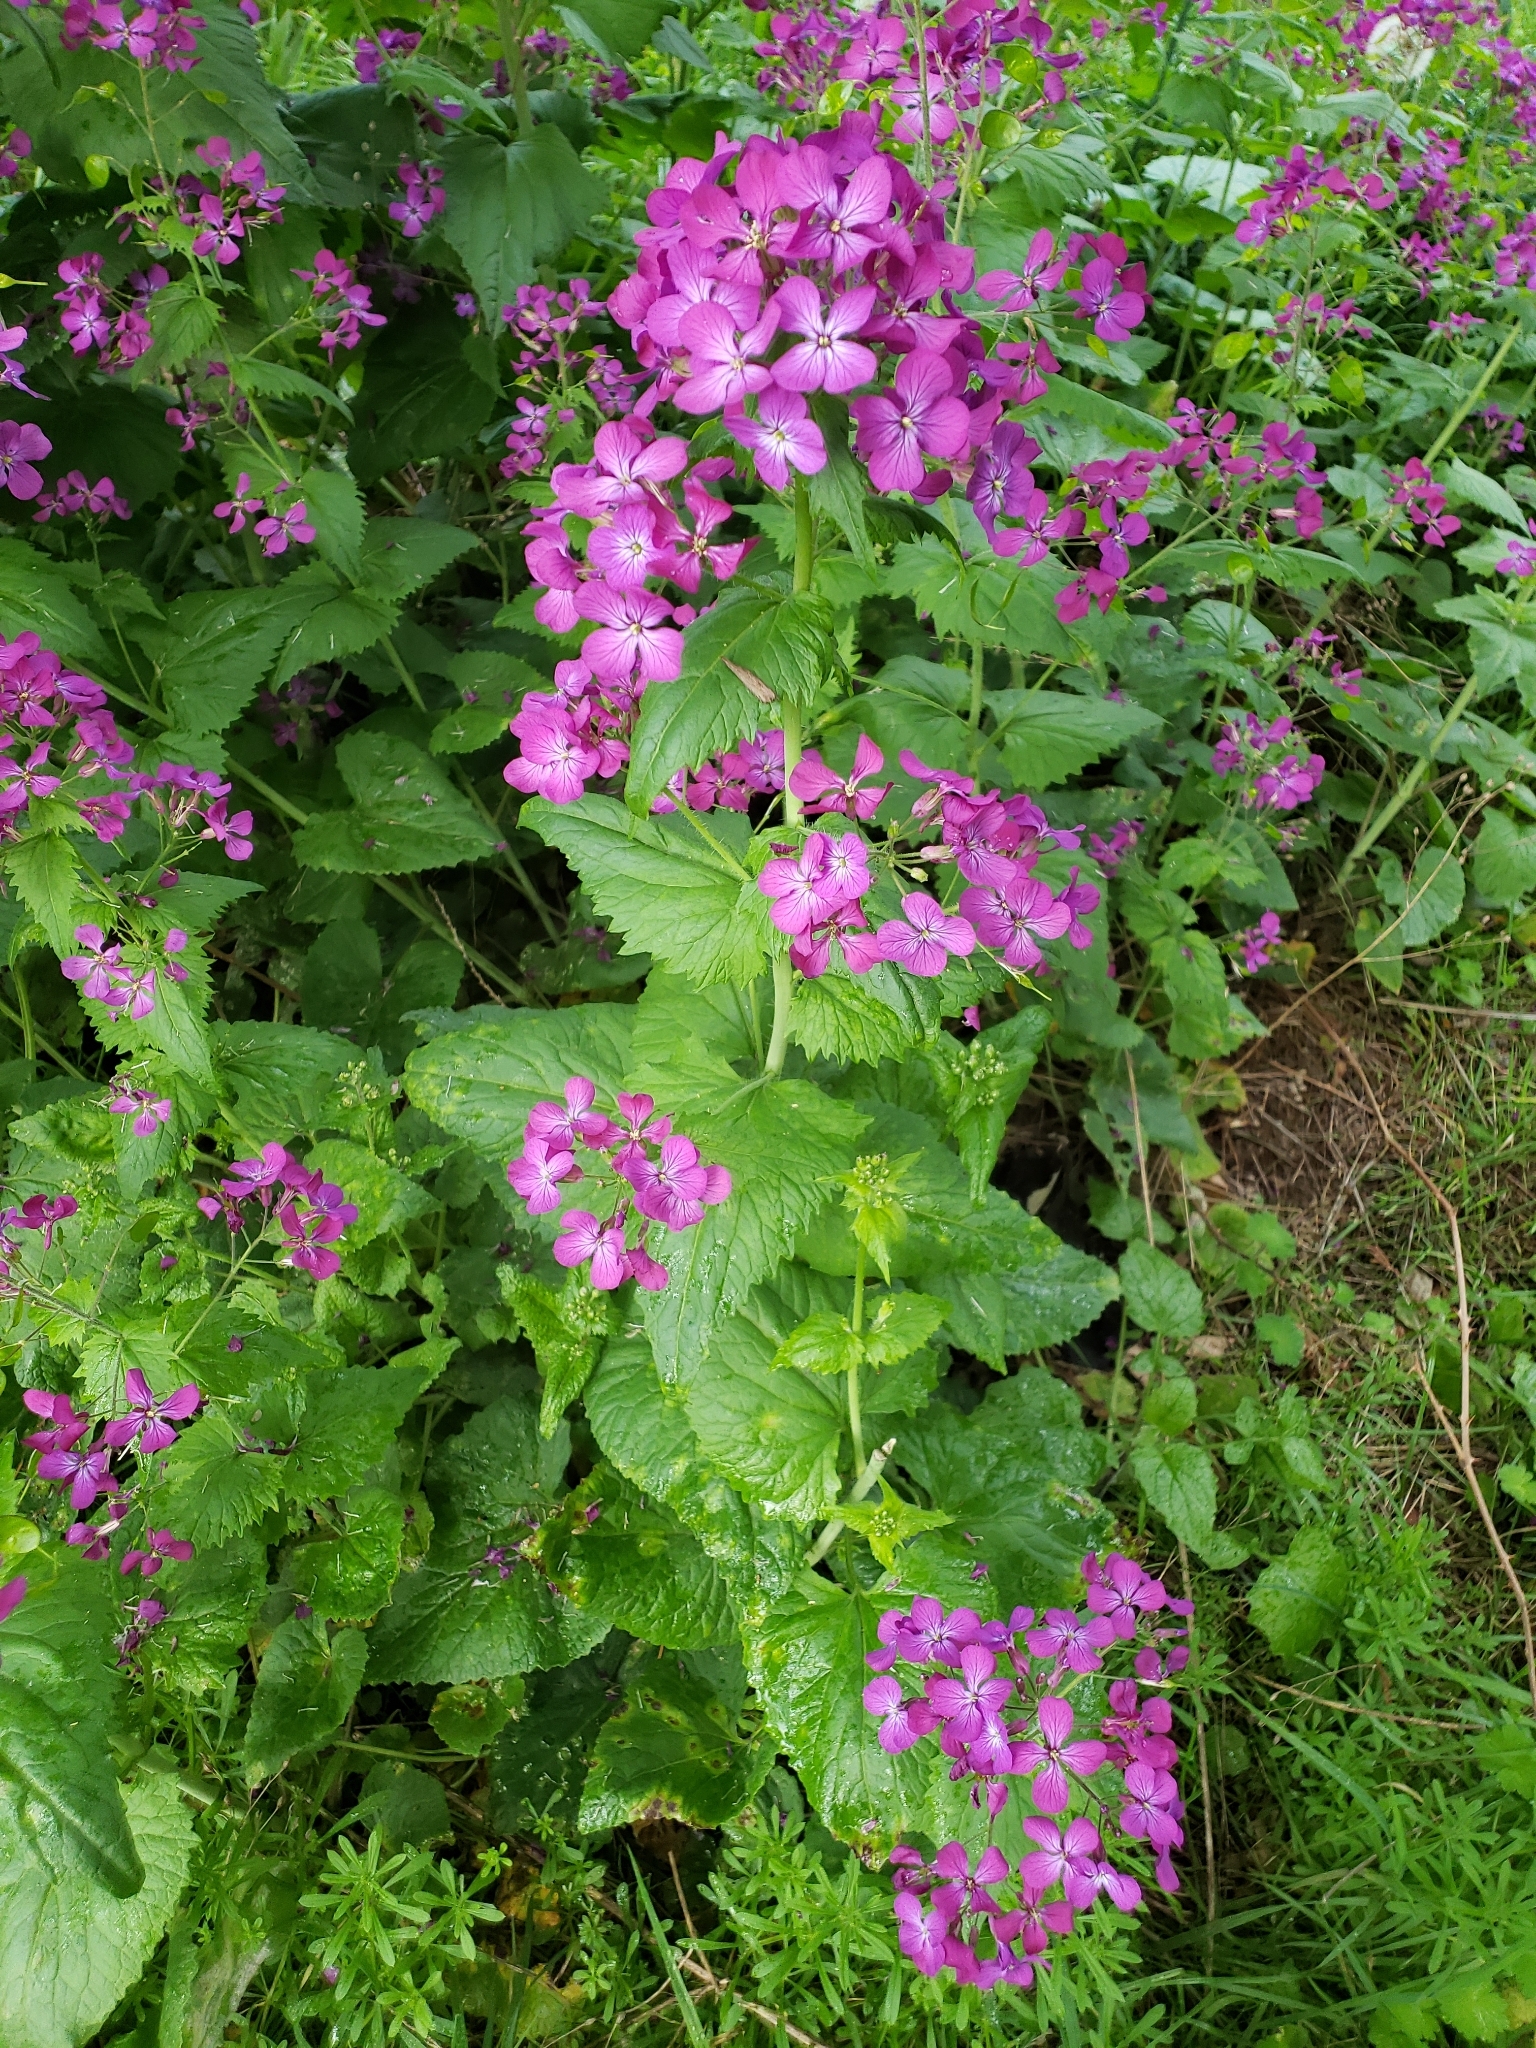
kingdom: Plantae
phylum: Tracheophyta
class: Magnoliopsida
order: Brassicales
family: Brassicaceae
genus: Lunaria
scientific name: Lunaria annua
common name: Honesty
